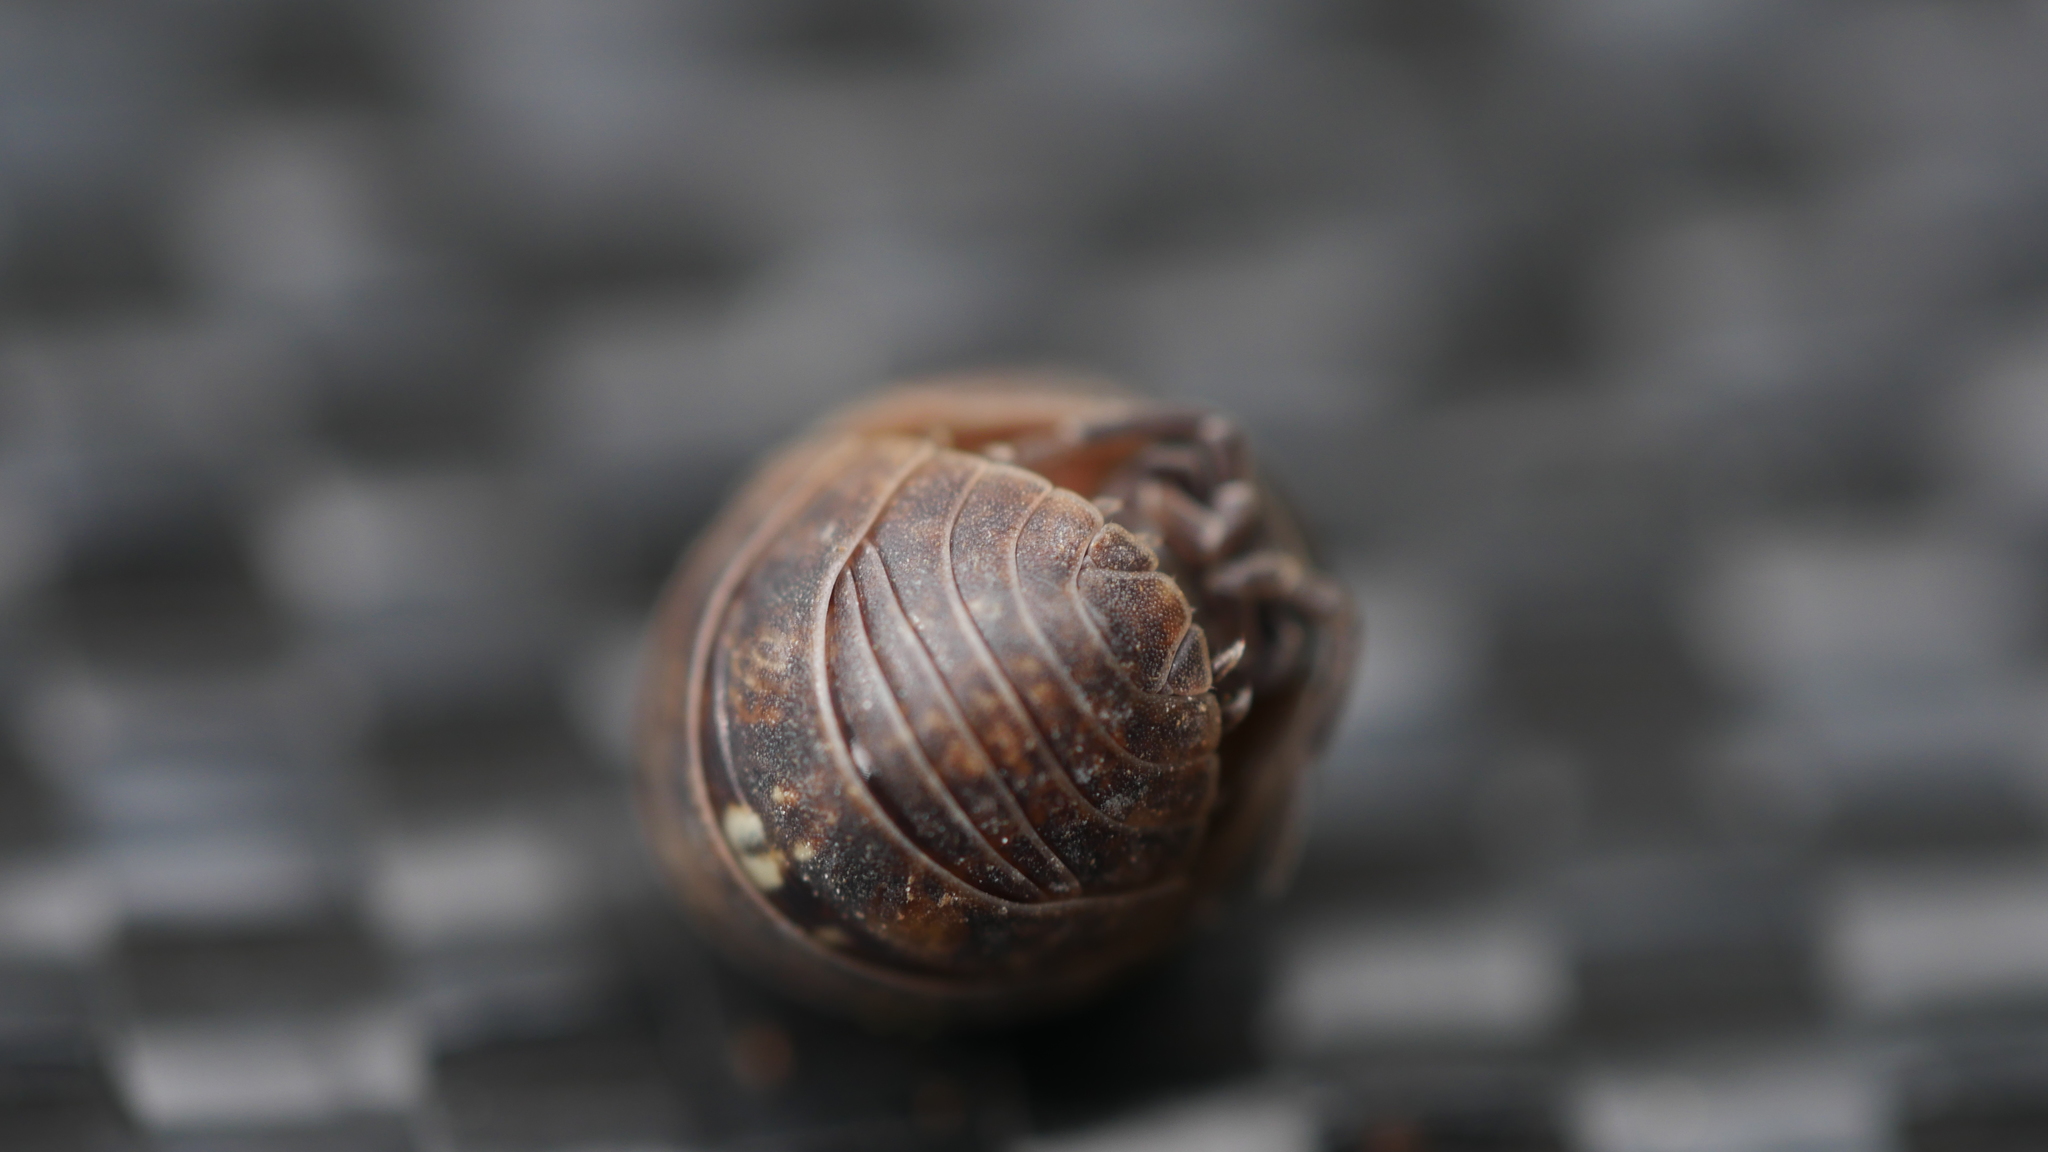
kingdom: Animalia
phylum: Arthropoda
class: Malacostraca
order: Isopoda
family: Armadillidiidae
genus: Armadillidium
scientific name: Armadillidium vulgare
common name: Common pill woodlouse
